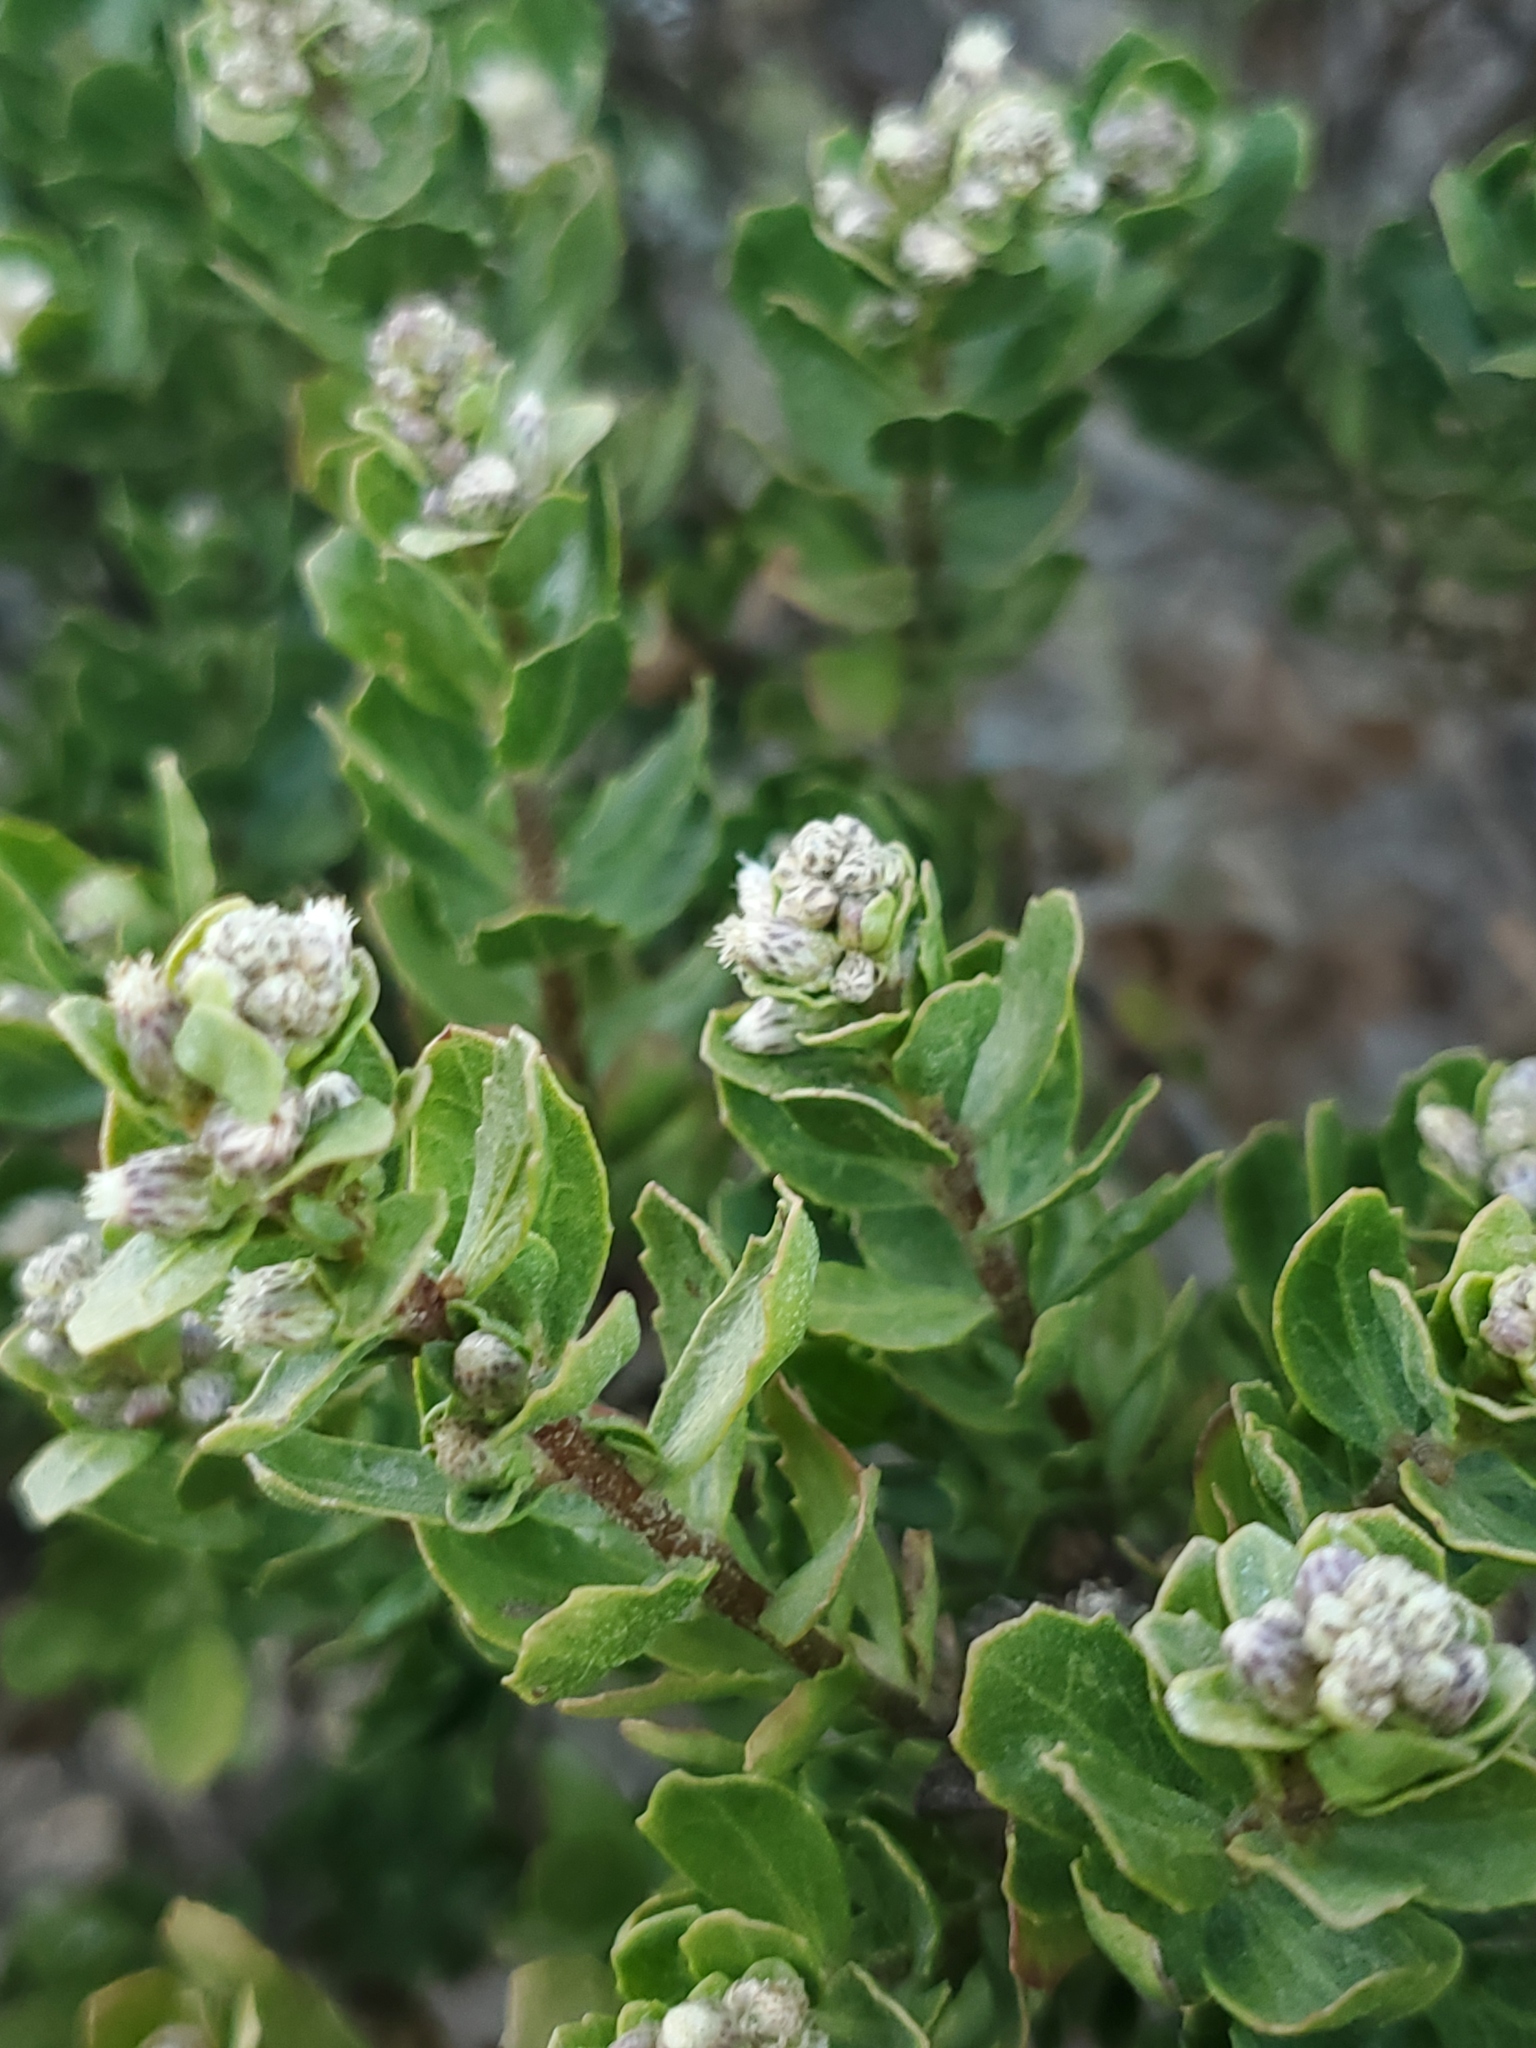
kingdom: Plantae
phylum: Tracheophyta
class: Magnoliopsida
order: Asterales
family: Asteraceae
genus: Baccharis
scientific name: Baccharis pilularis
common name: Coyotebrush
